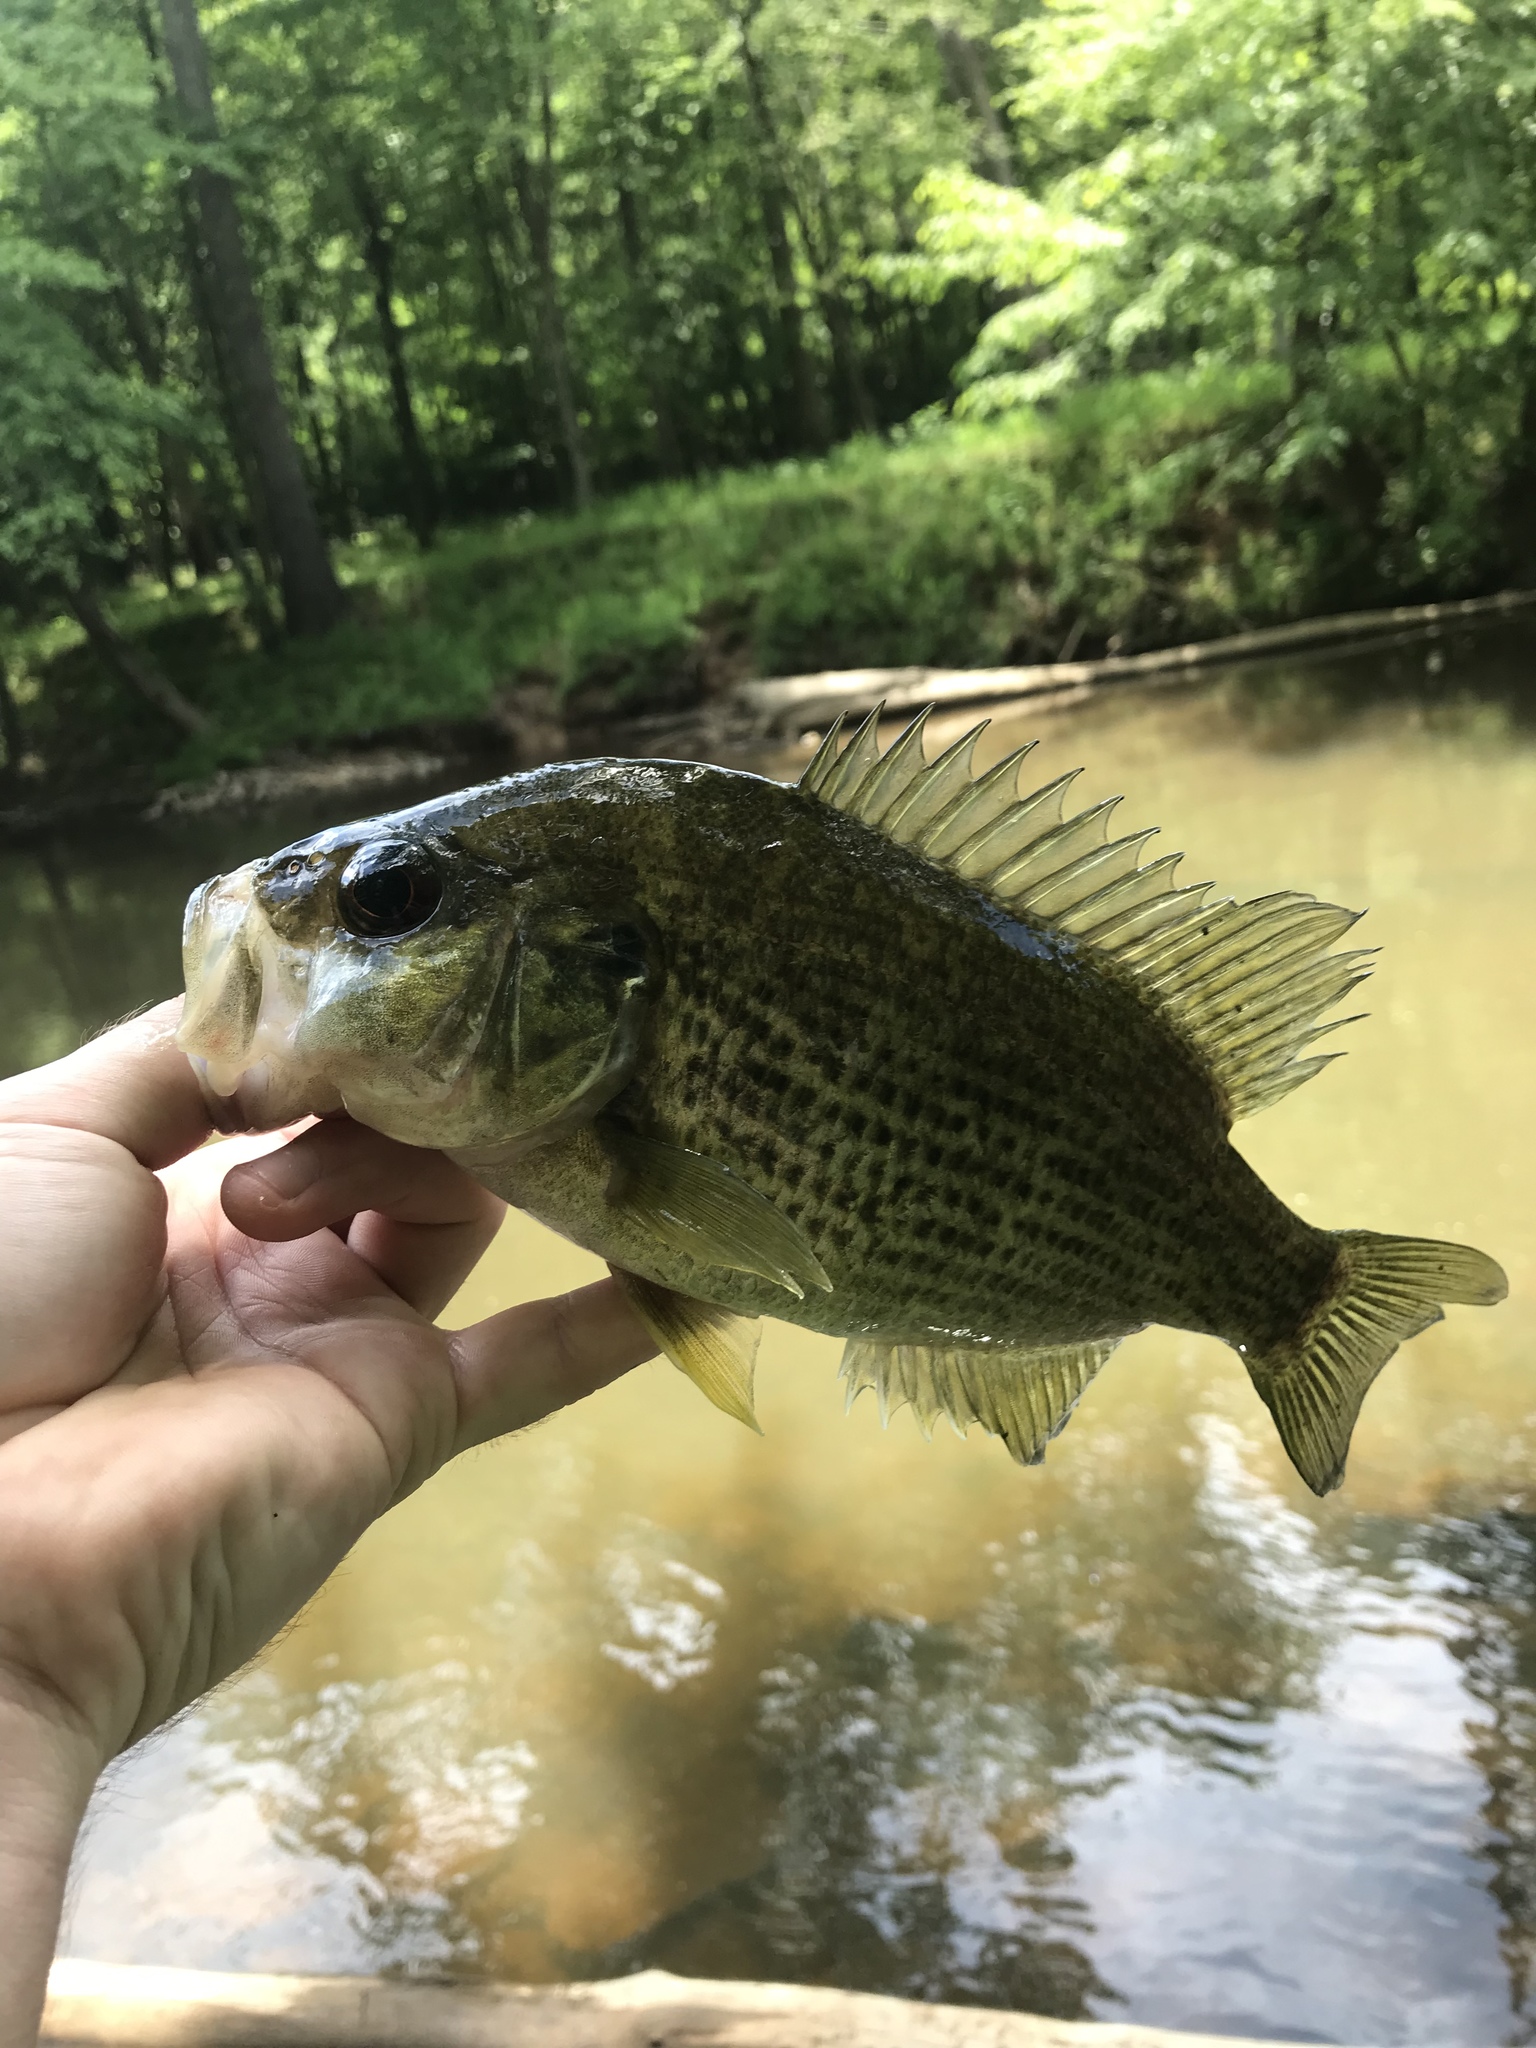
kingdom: Animalia
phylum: Chordata
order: Perciformes
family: Centrarchidae
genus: Ambloplites
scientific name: Ambloplites cavifrons
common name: Roanoke bass
